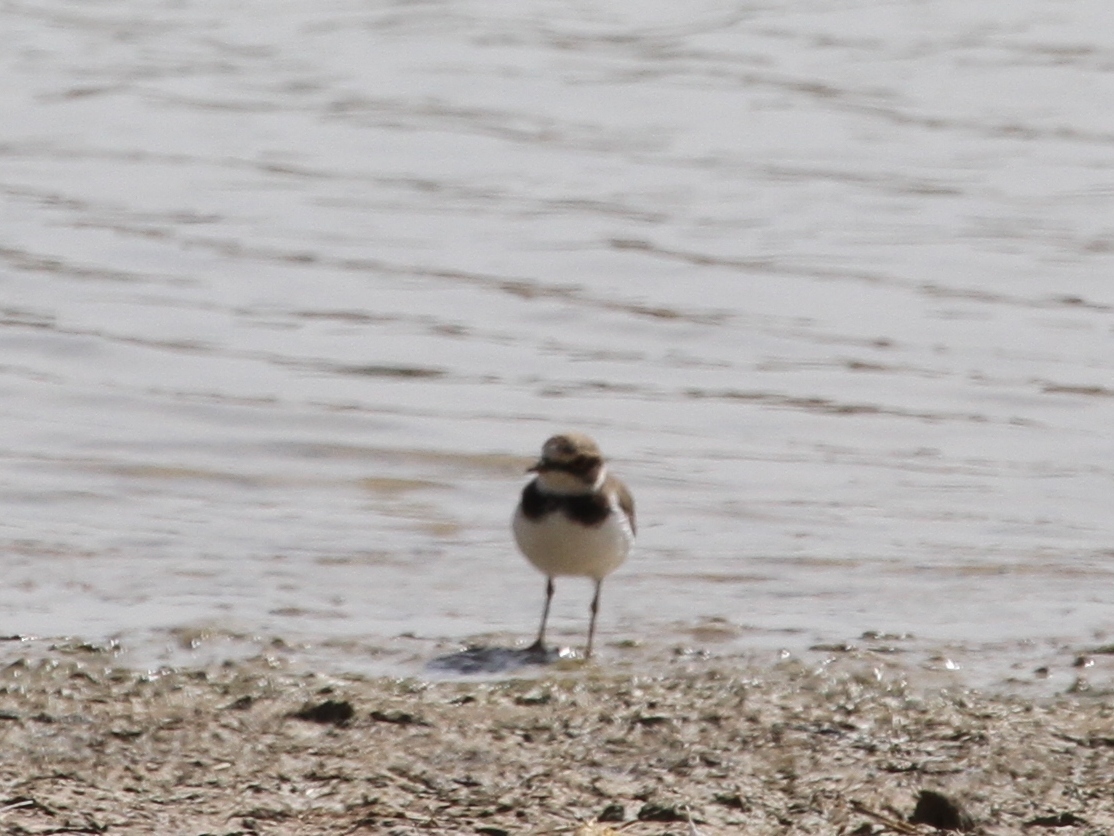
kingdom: Animalia
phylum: Chordata
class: Aves
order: Charadriiformes
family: Charadriidae
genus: Charadrius
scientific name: Charadrius dubius
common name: Little ringed plover
